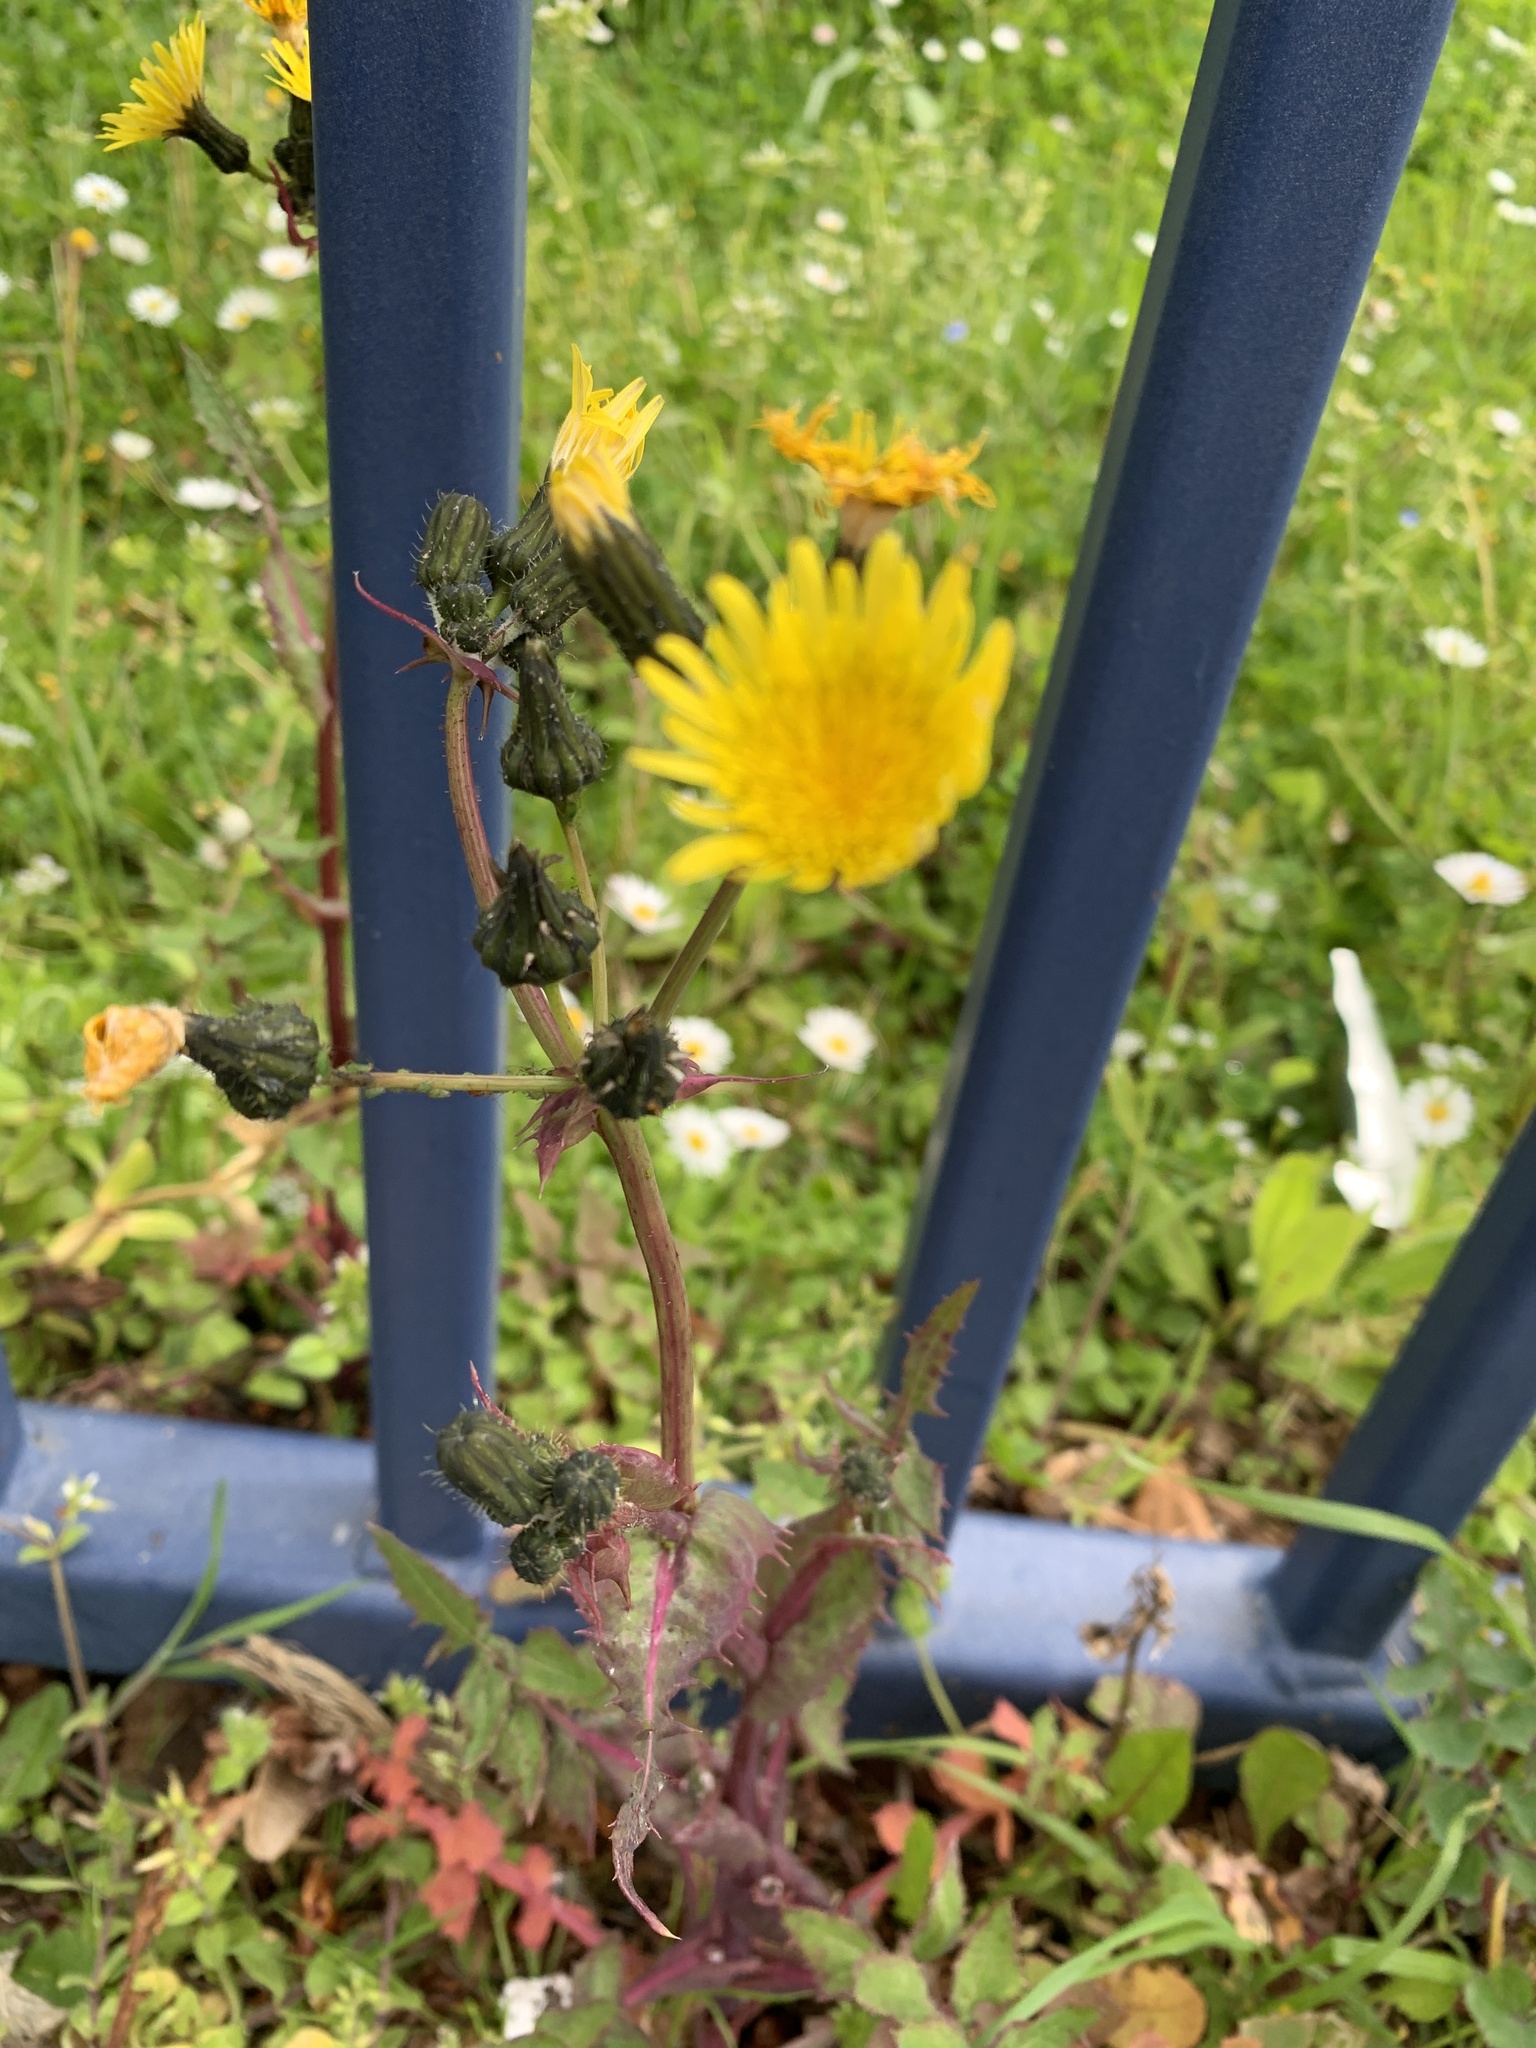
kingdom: Plantae
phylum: Tracheophyta
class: Magnoliopsida
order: Asterales
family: Asteraceae
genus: Sonchus
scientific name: Sonchus oleraceus
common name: Common sowthistle
